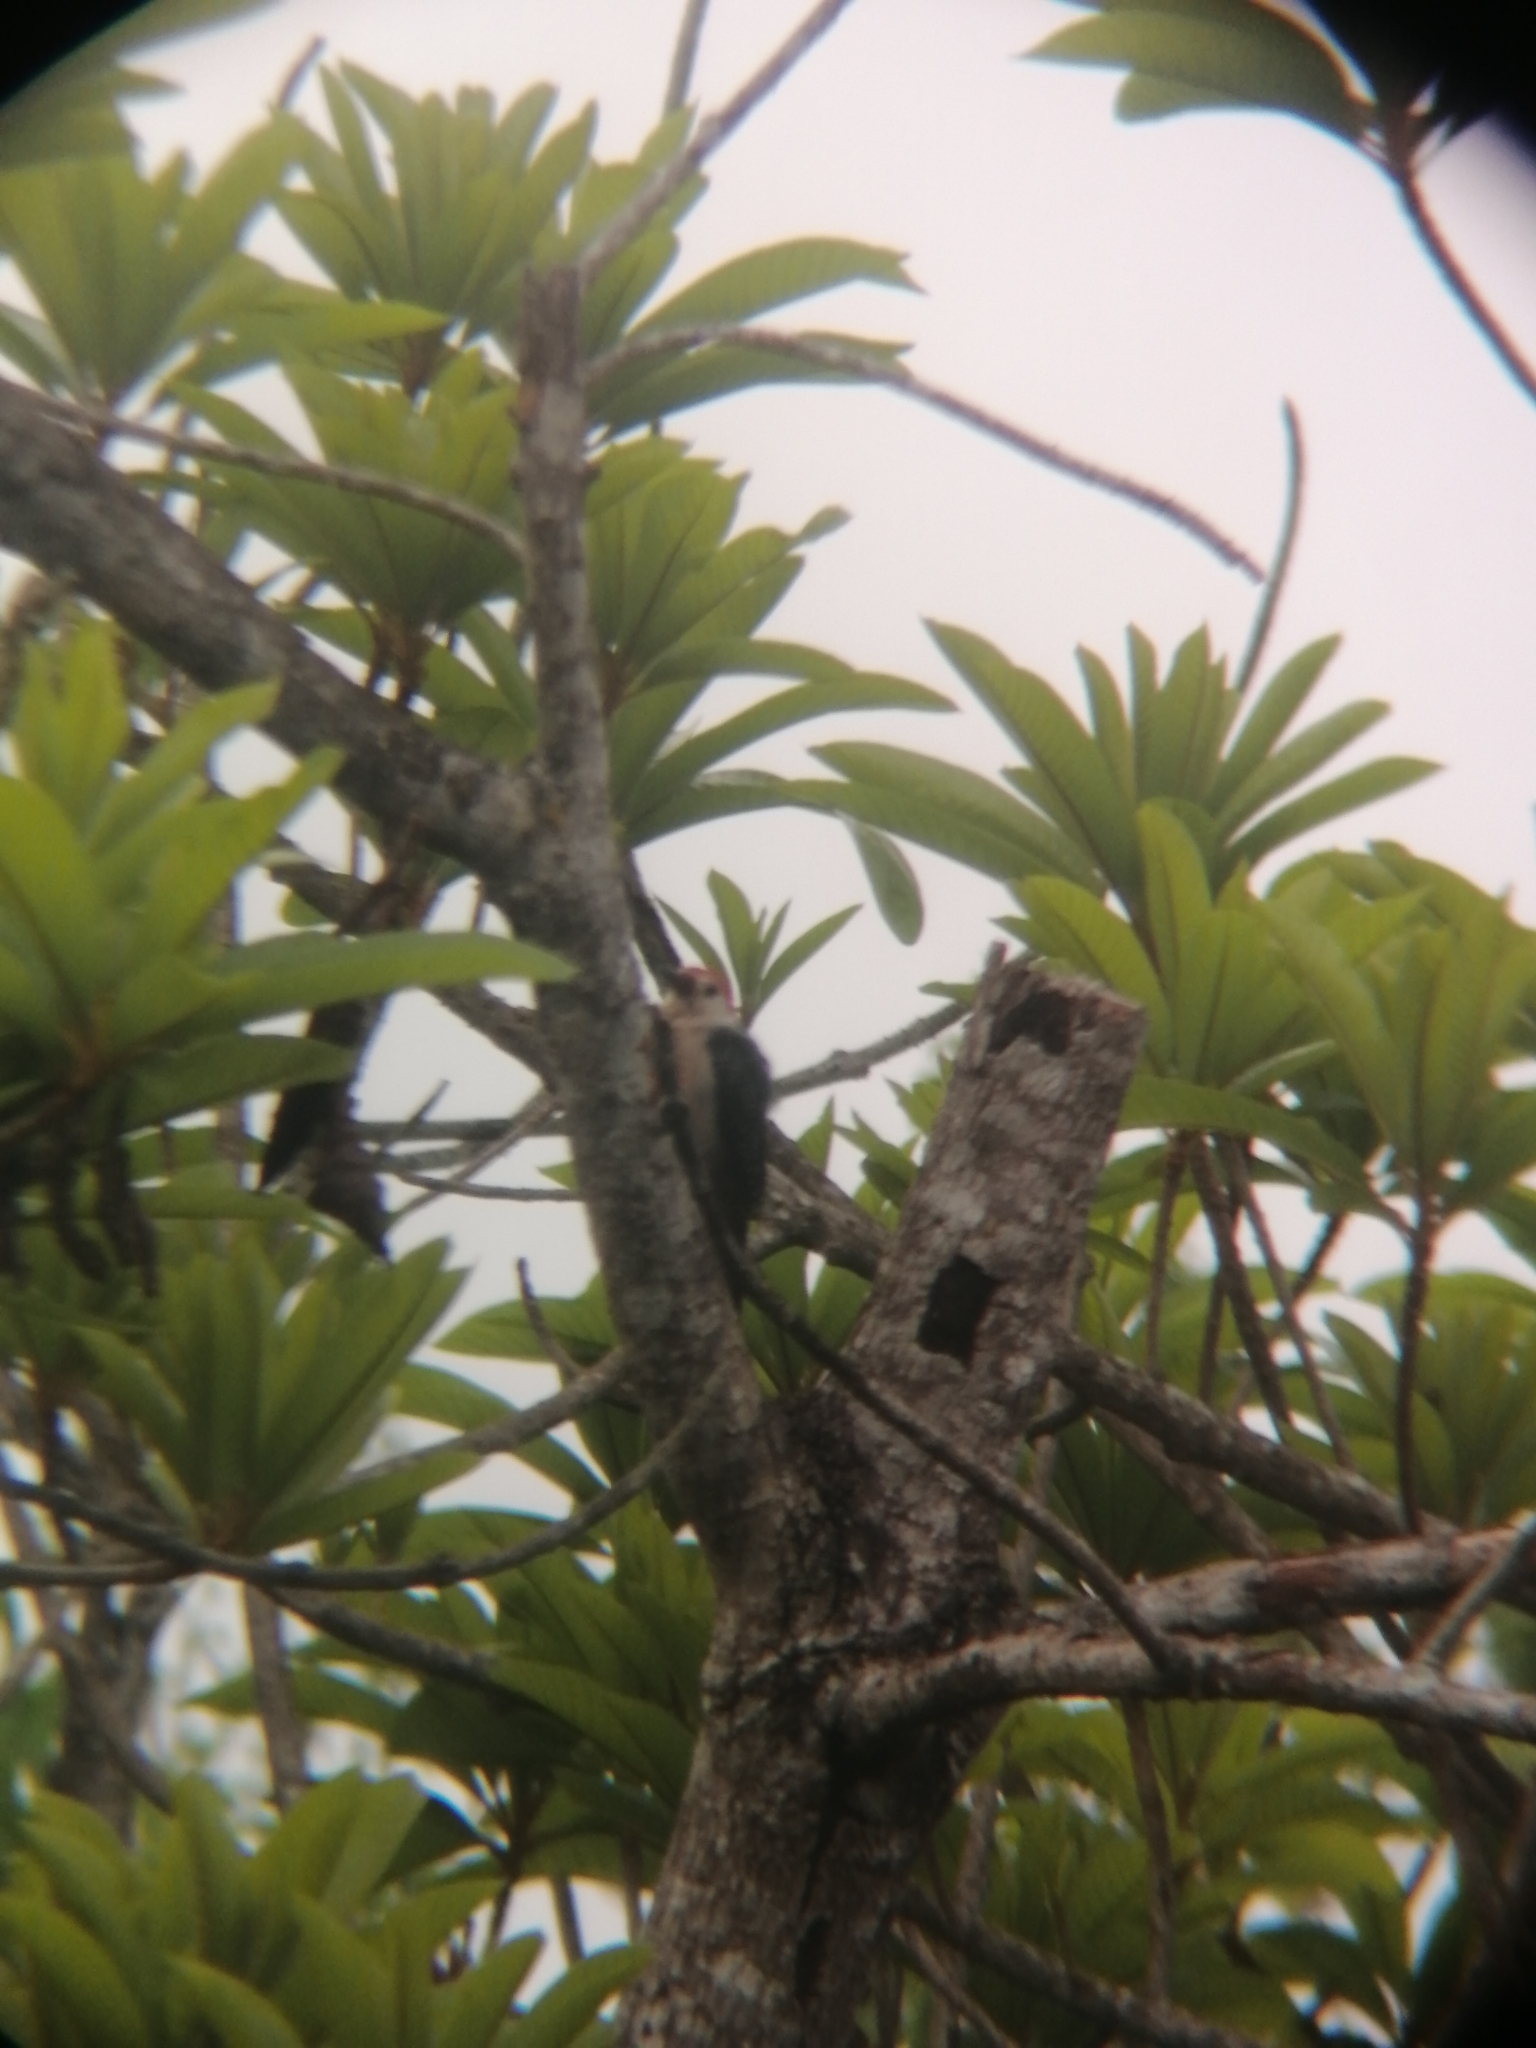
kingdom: Animalia
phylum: Chordata
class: Aves
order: Piciformes
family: Picidae
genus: Melanerpes
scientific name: Melanerpes aurifrons
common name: Golden-fronted woodpecker
